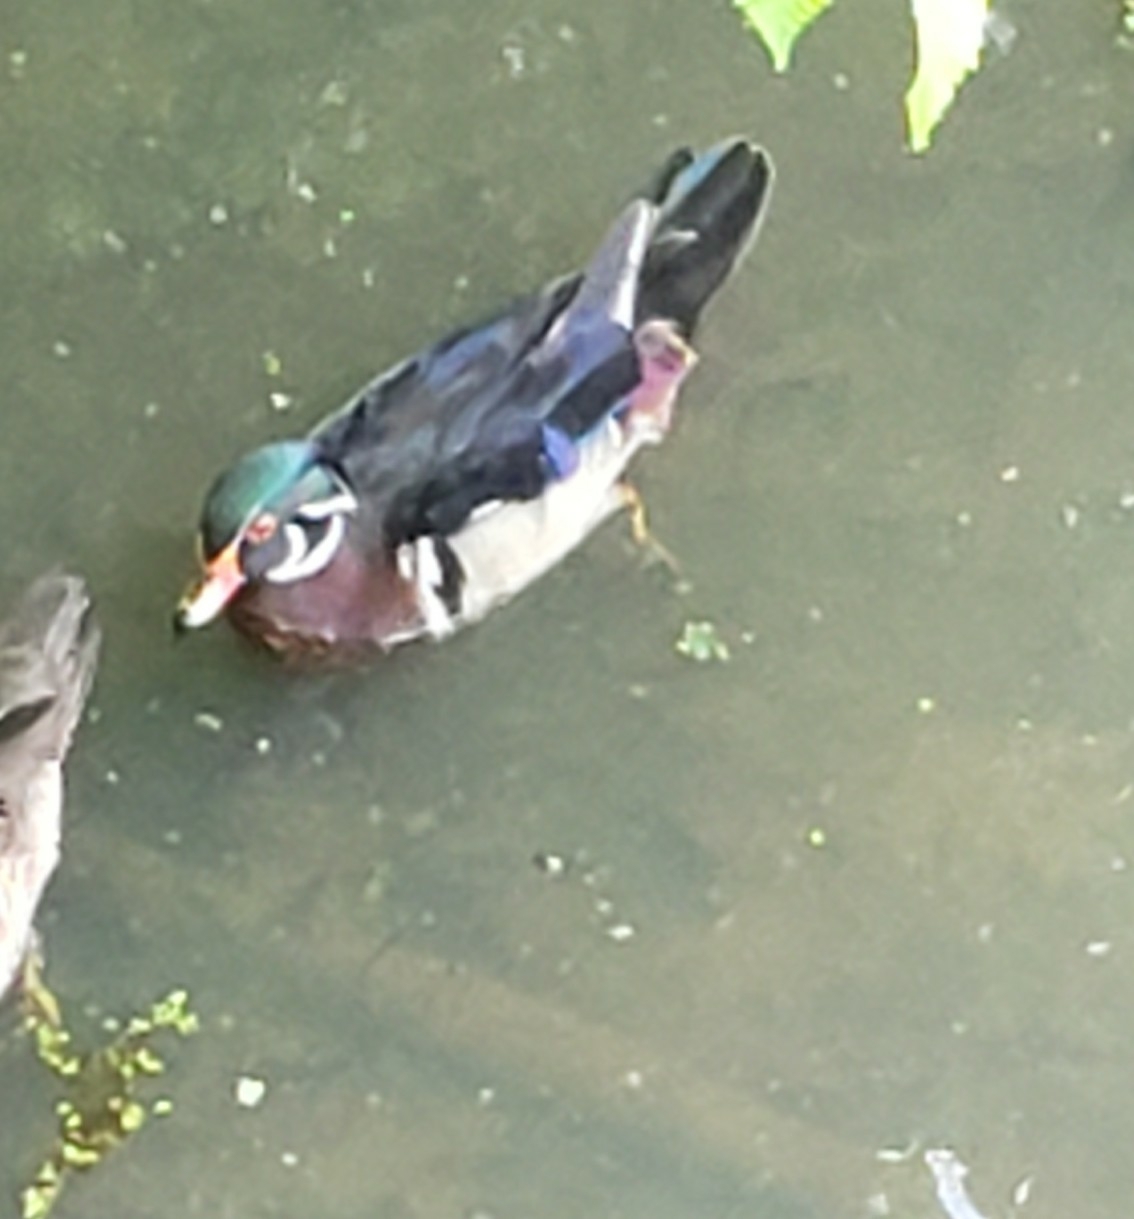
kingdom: Animalia
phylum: Chordata
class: Aves
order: Anseriformes
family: Anatidae
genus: Aix
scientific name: Aix sponsa
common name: Wood duck
